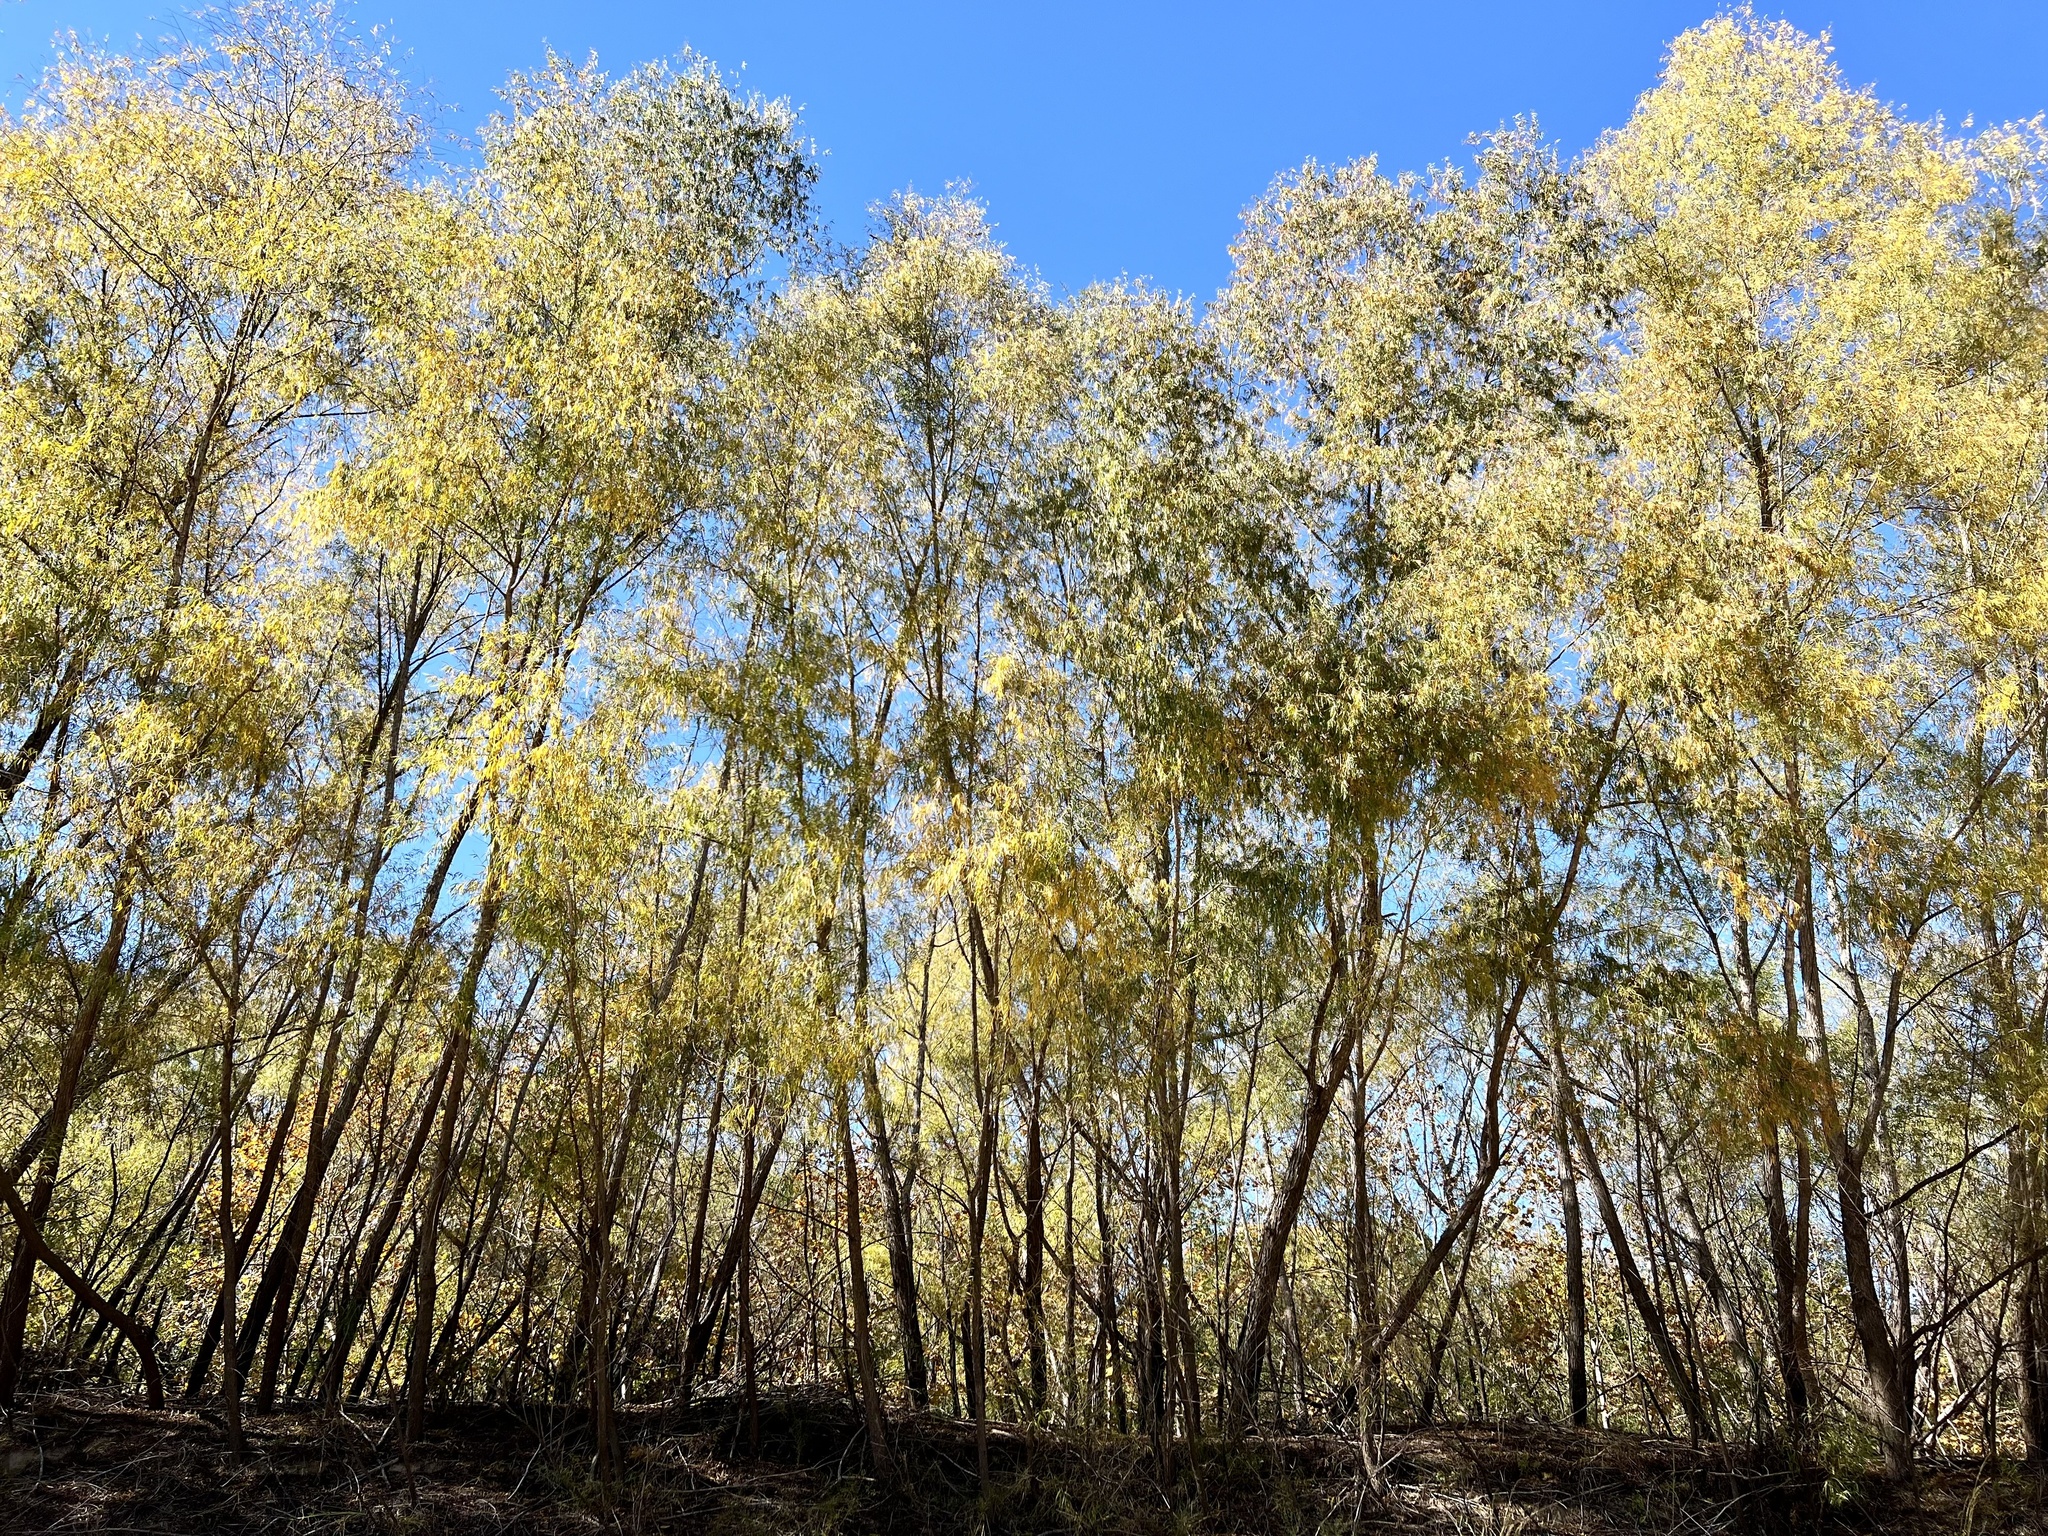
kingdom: Plantae
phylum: Tracheophyta
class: Magnoliopsida
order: Malpighiales
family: Salicaceae
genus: Salix
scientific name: Salix nigra
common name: Black willow
